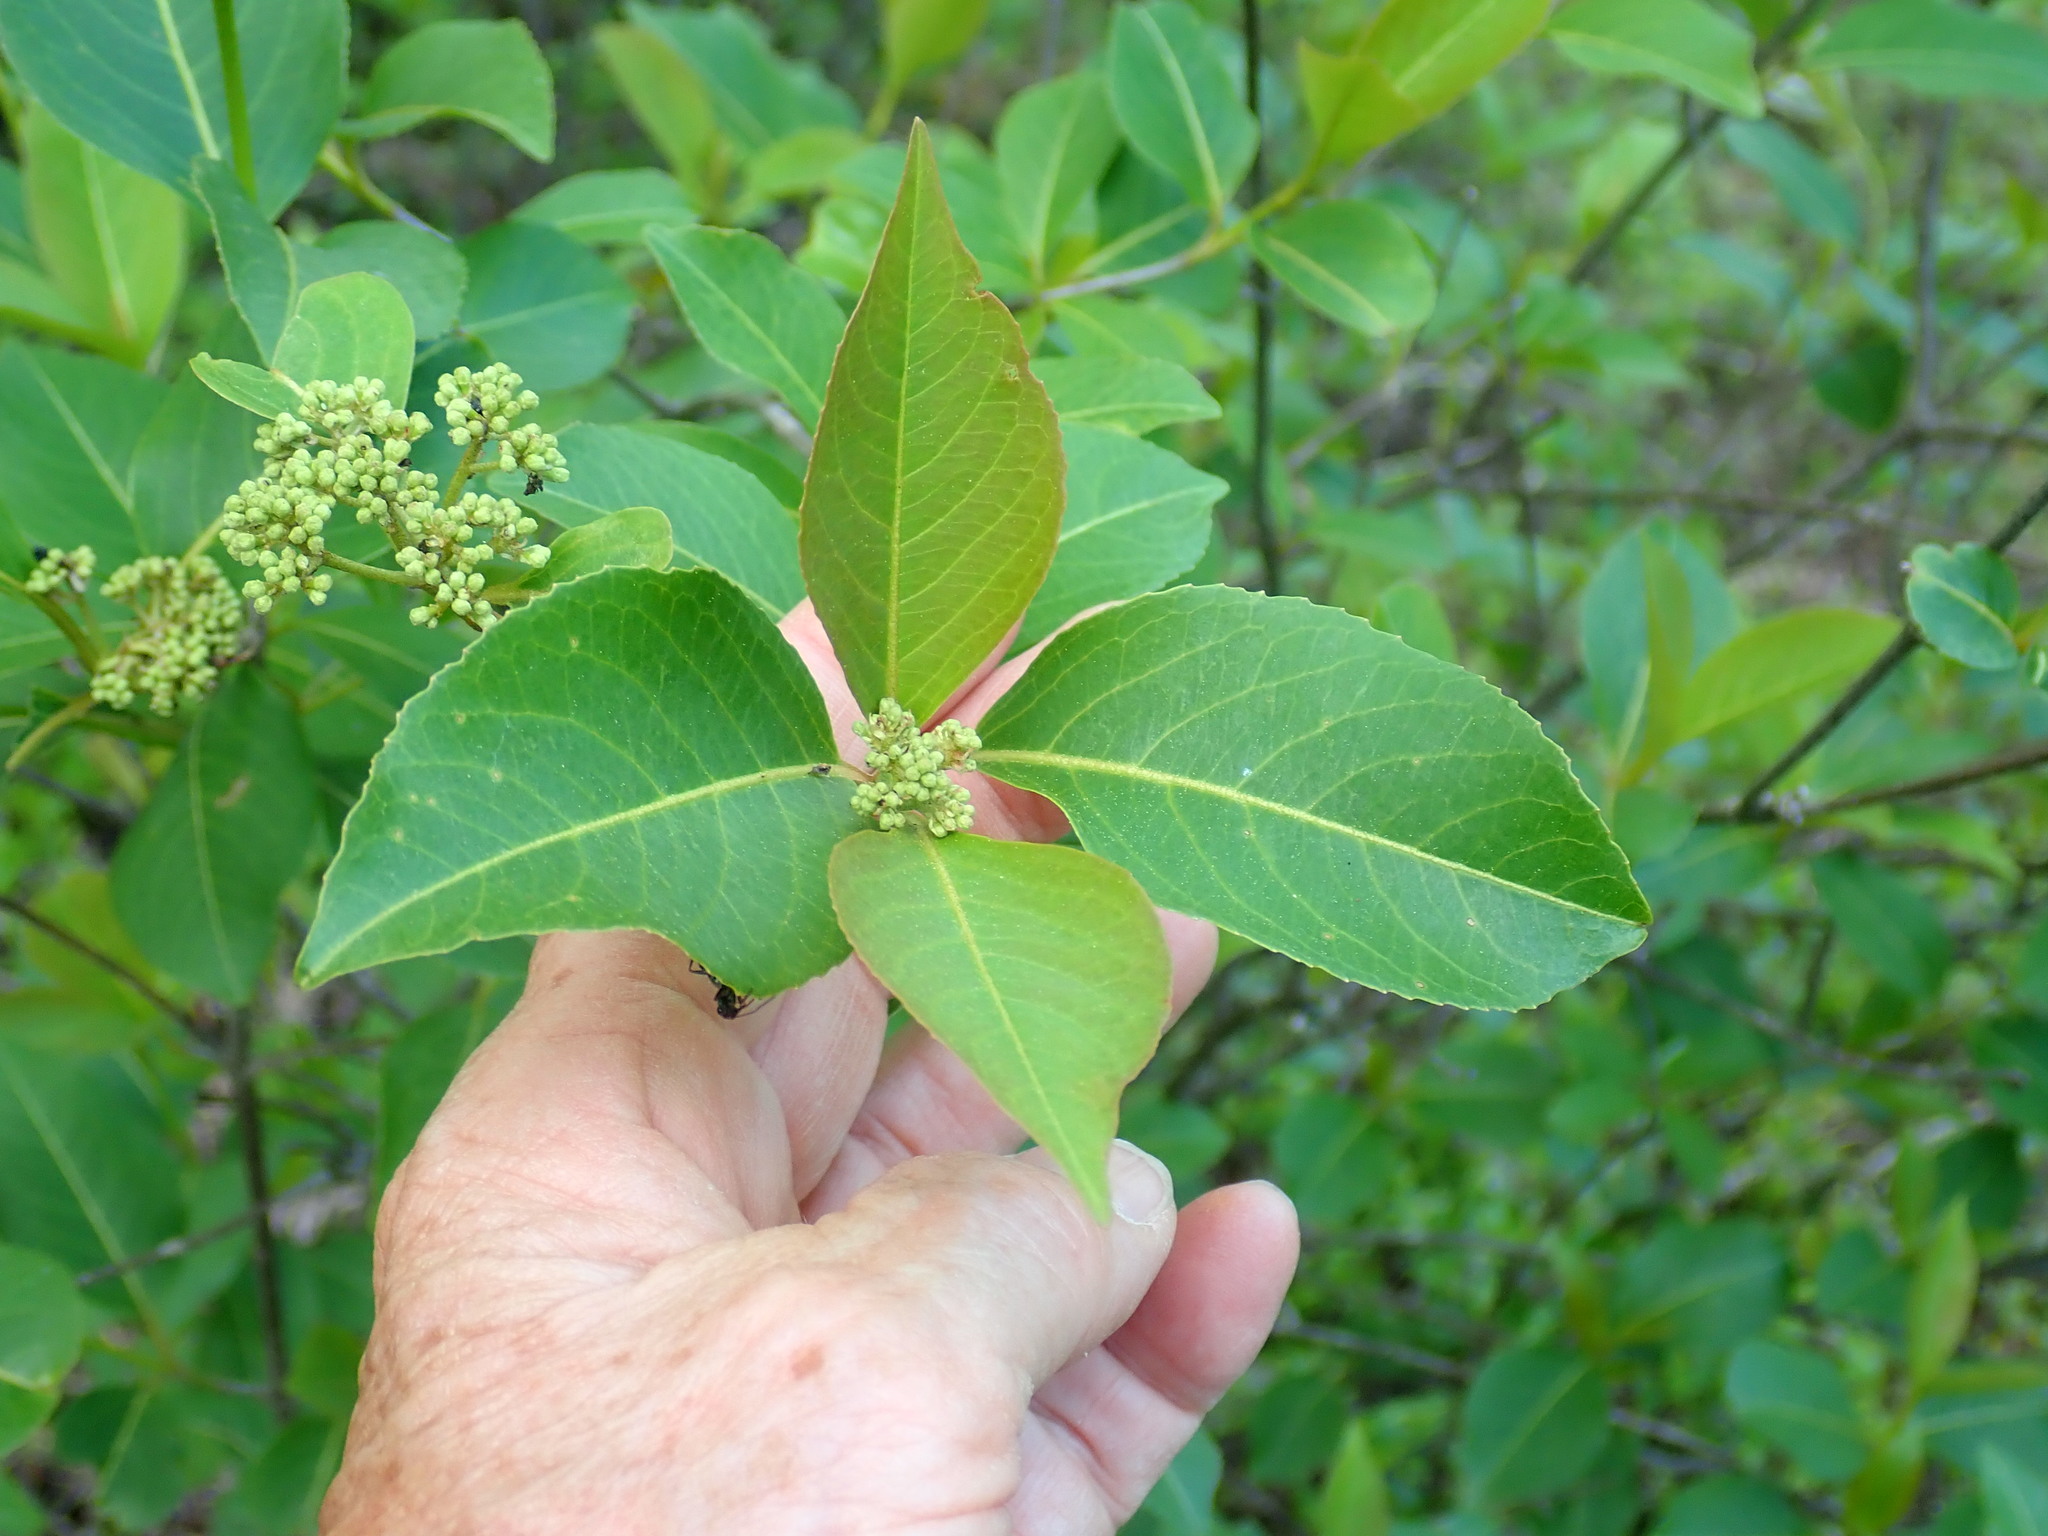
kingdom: Plantae
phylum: Tracheophyta
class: Magnoliopsida
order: Dipsacales
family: Viburnaceae
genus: Viburnum
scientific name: Viburnum cassinoides
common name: Swamp haw
